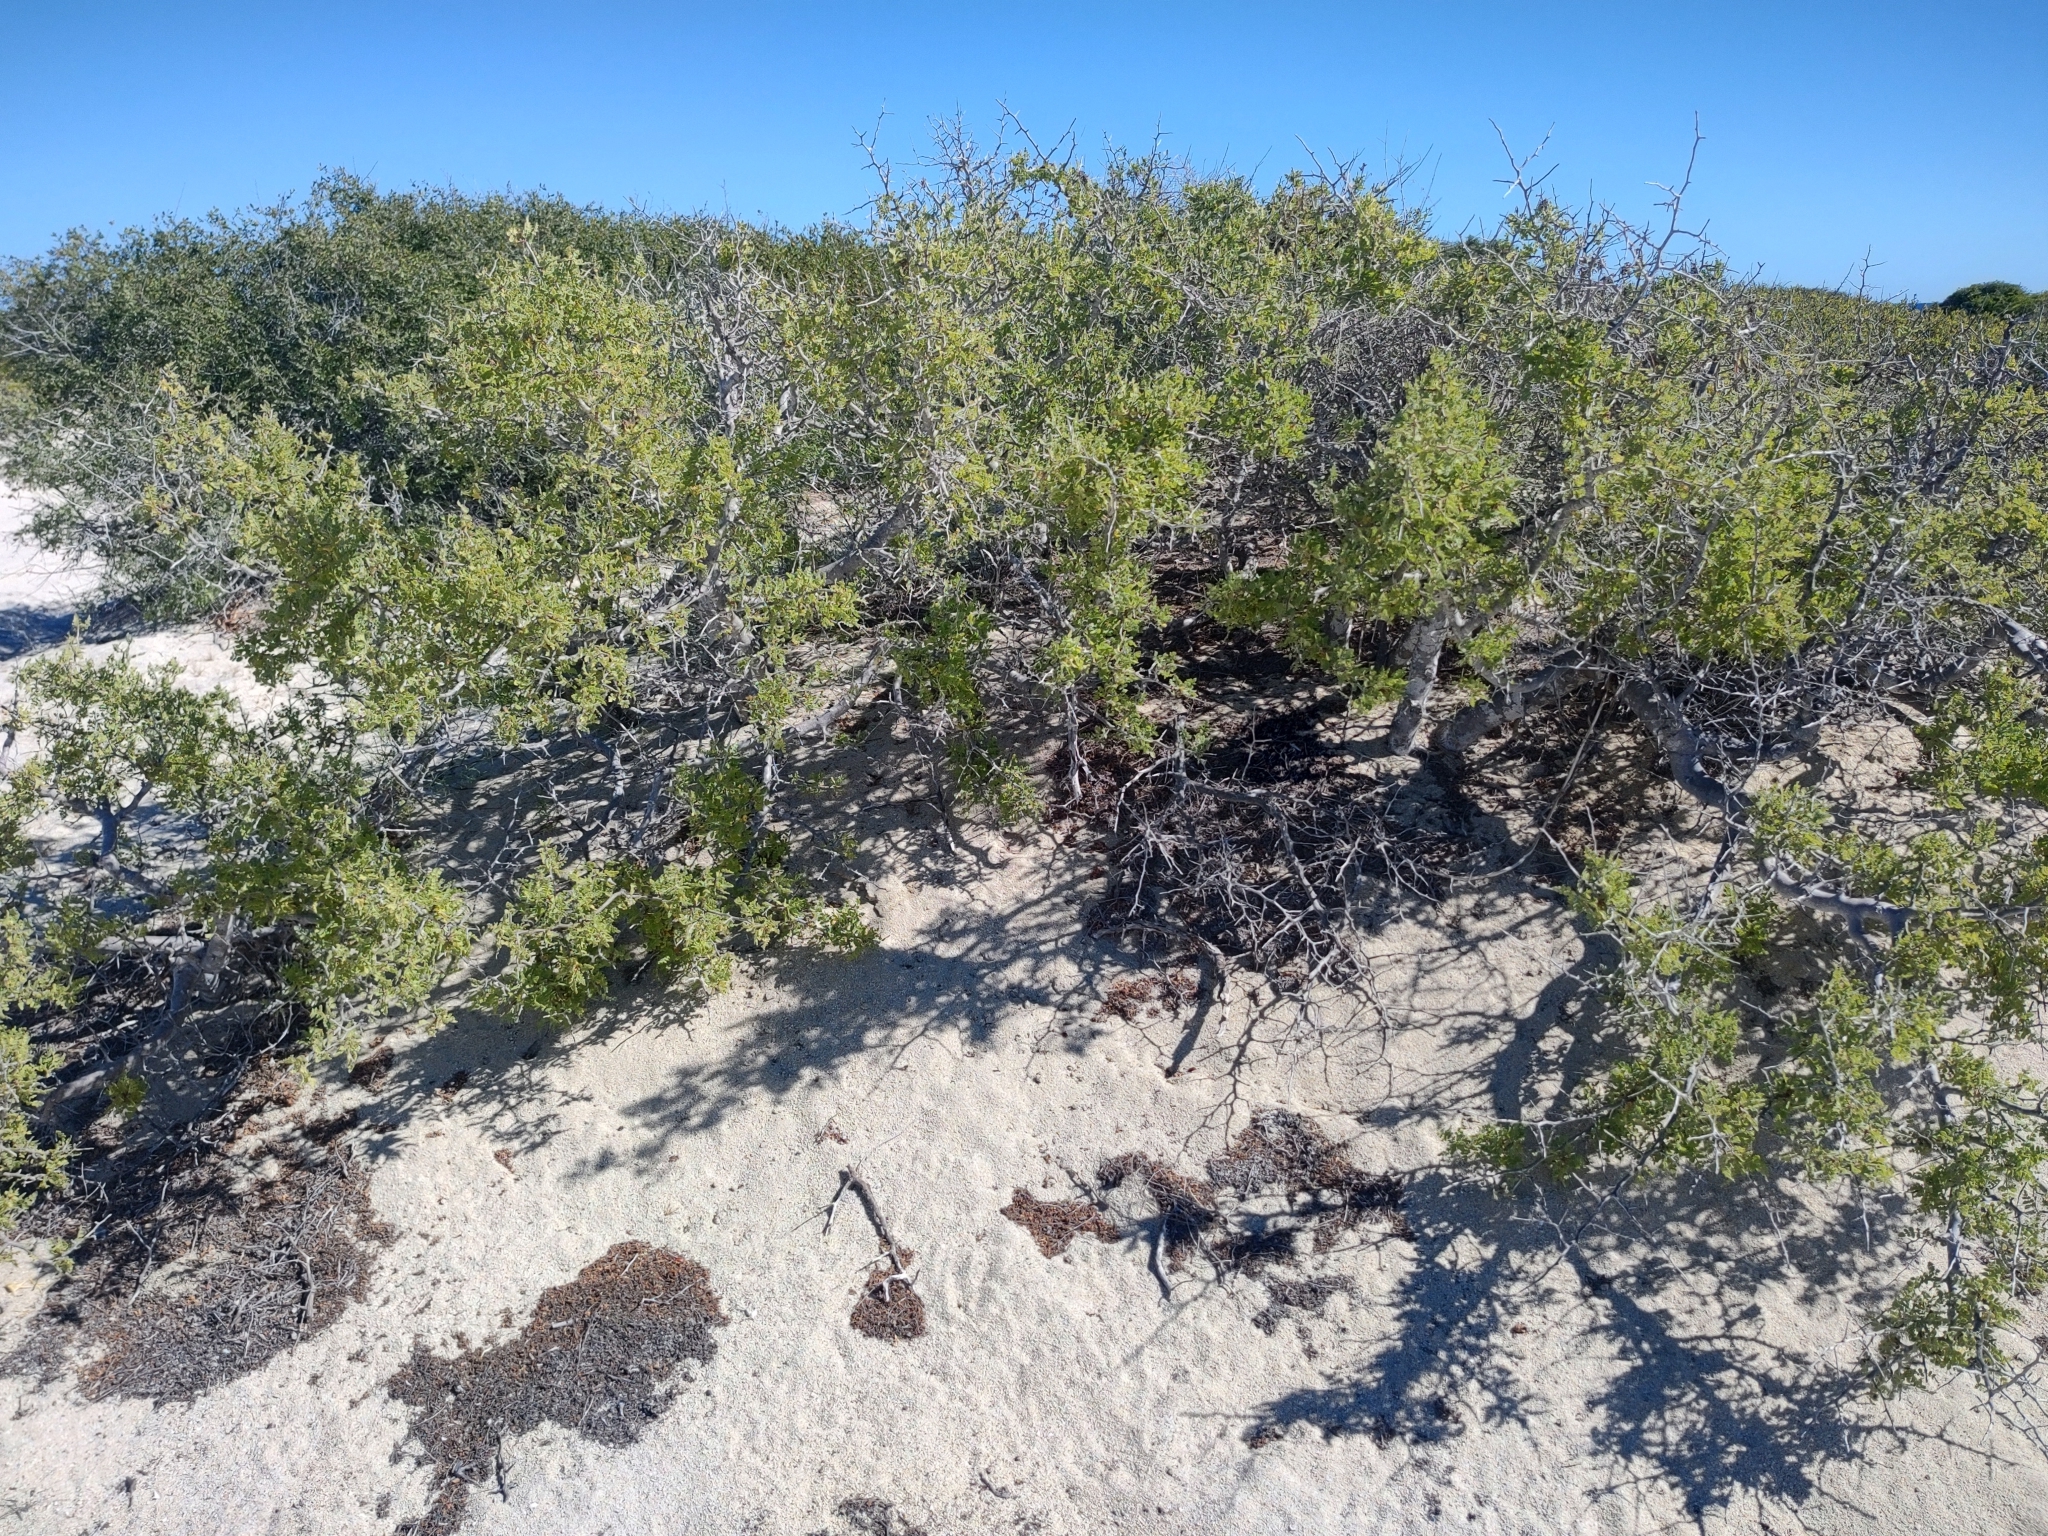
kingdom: Plantae
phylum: Tracheophyta
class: Magnoliopsida
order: Sapindales
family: Burseraceae
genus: Bursera
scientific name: Bursera filicifolia
